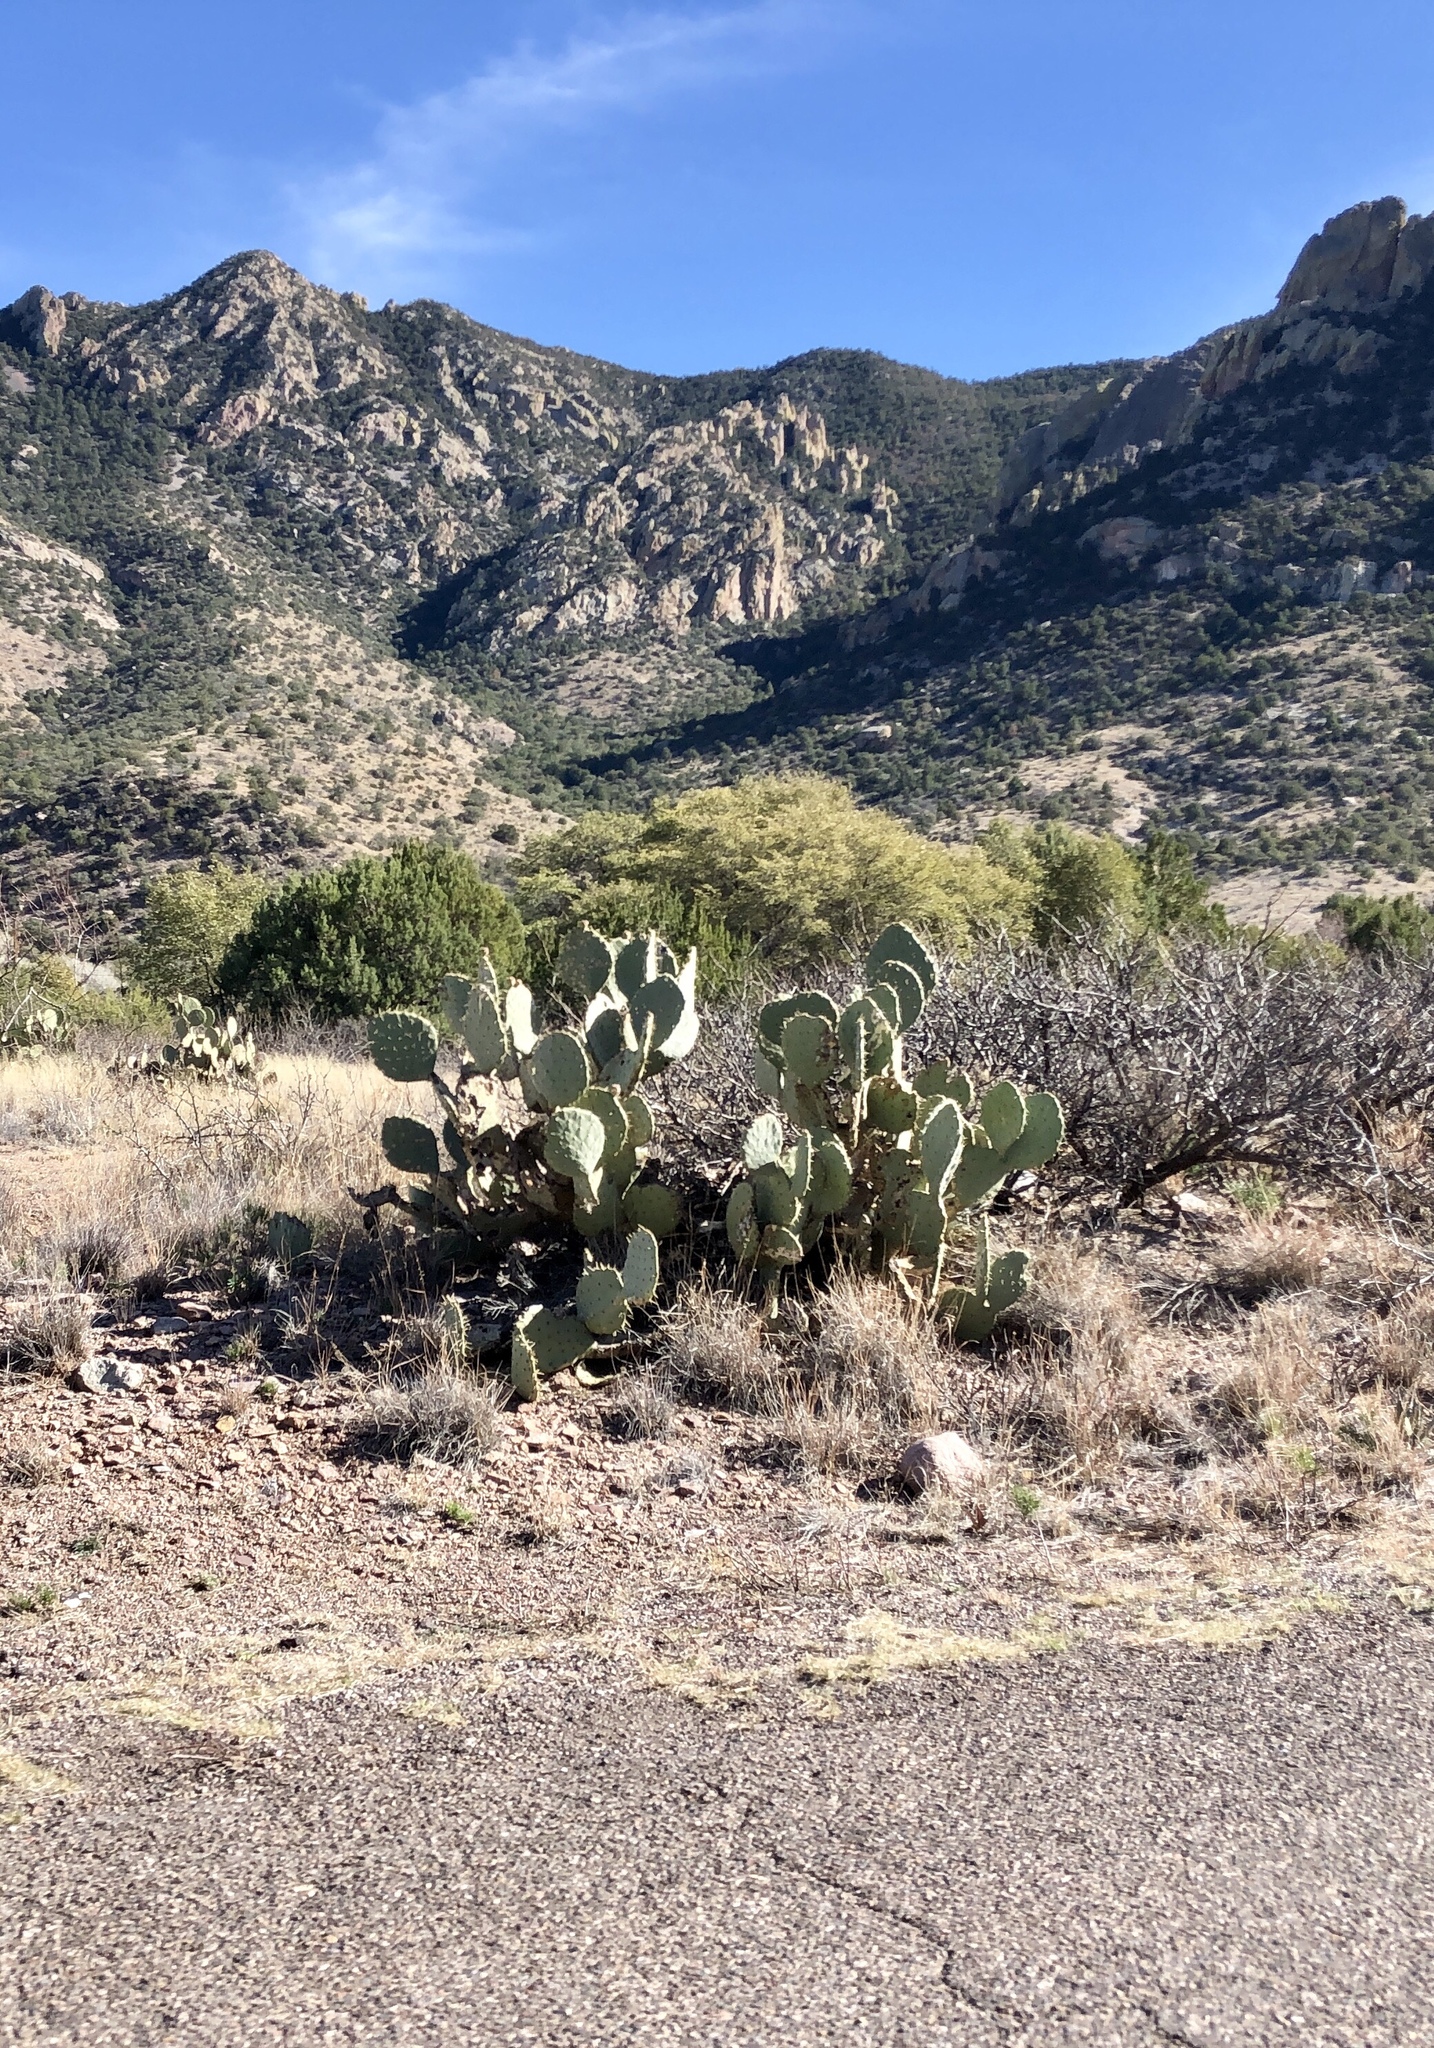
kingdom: Plantae
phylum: Tracheophyta
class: Magnoliopsida
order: Caryophyllales
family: Cactaceae
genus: Opuntia
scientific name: Opuntia orbiculata
